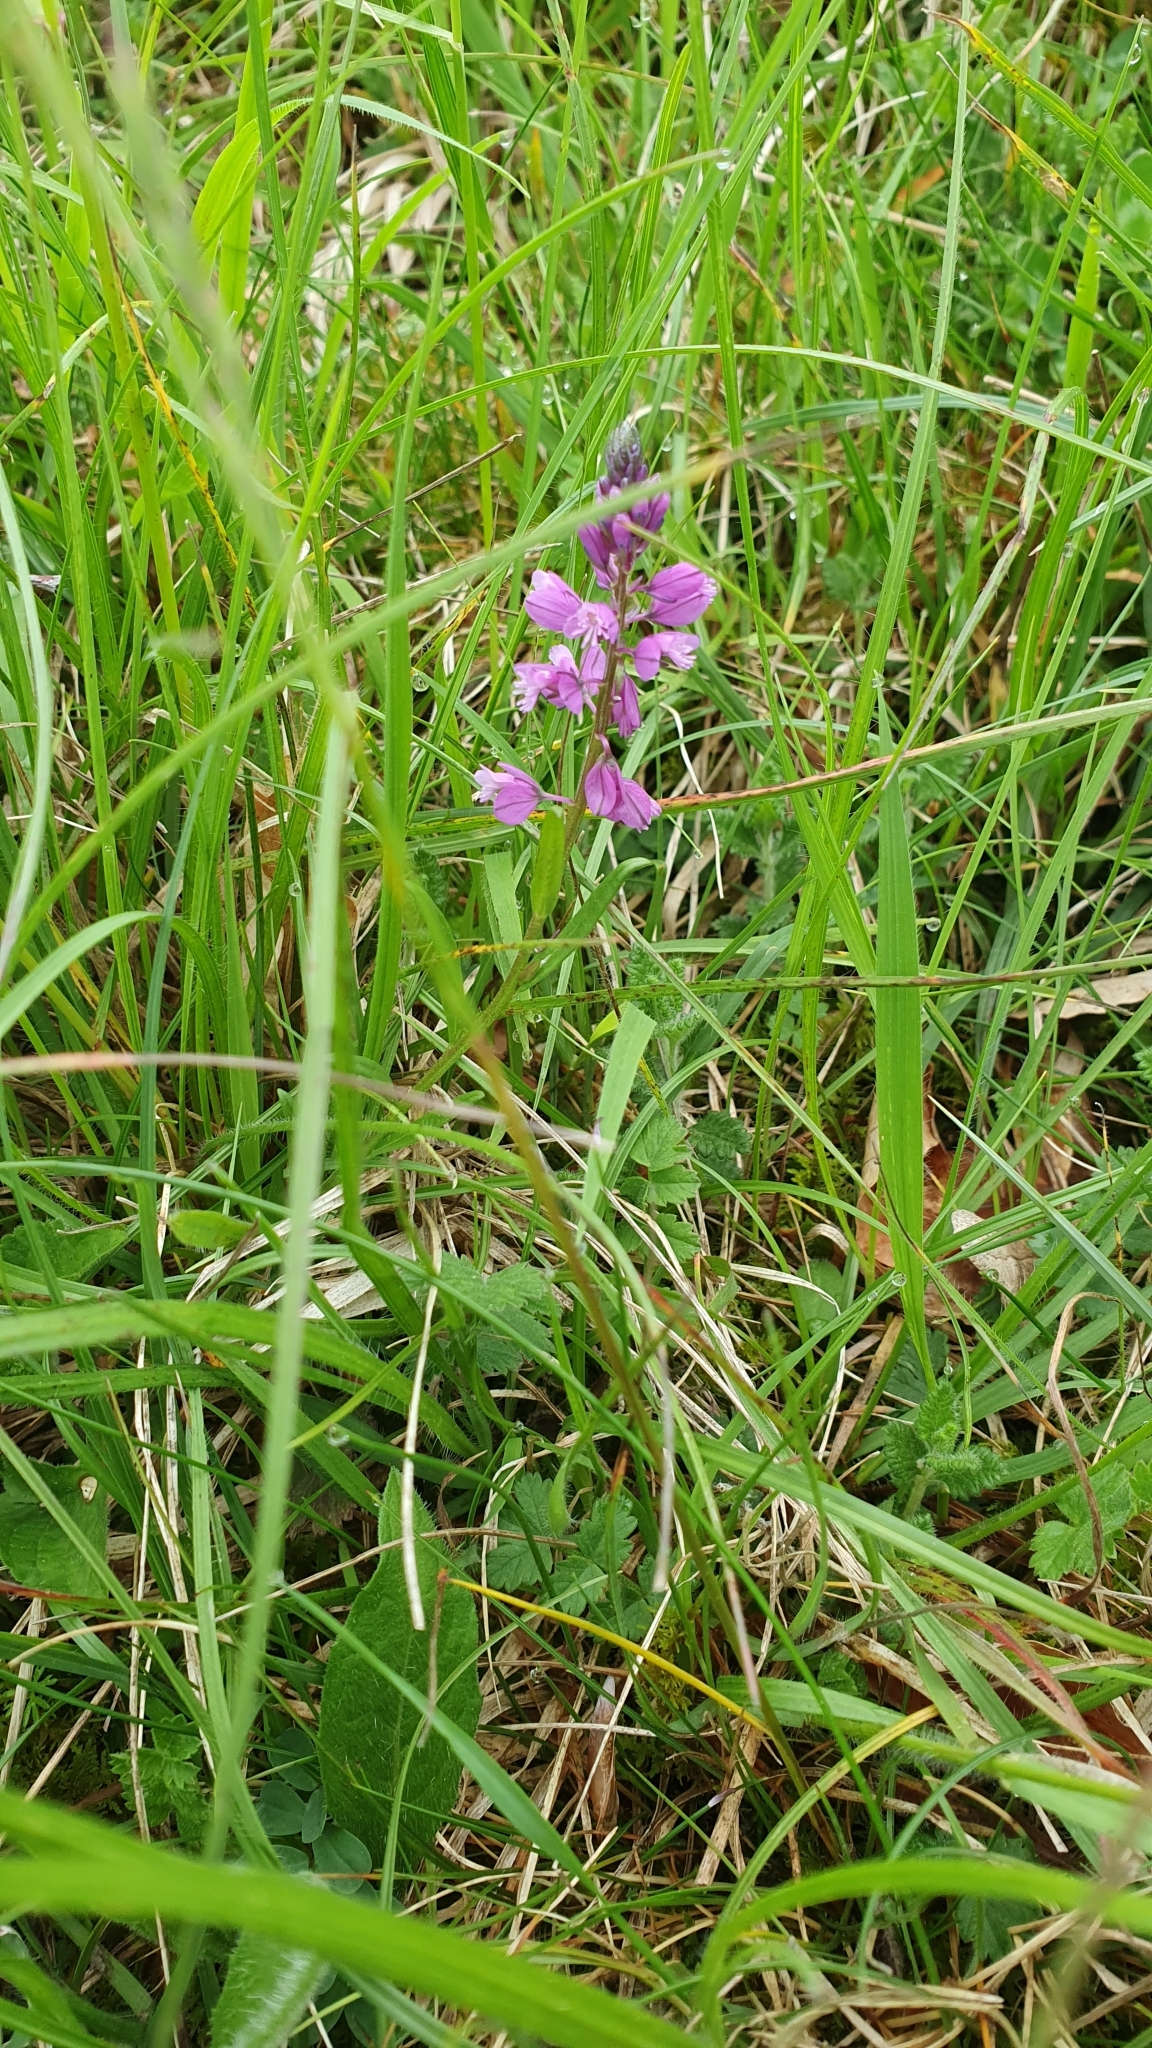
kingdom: Plantae
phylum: Tracheophyta
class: Magnoliopsida
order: Fabales
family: Polygalaceae
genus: Polygala
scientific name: Polygala comosa
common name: Tufted milkwort
